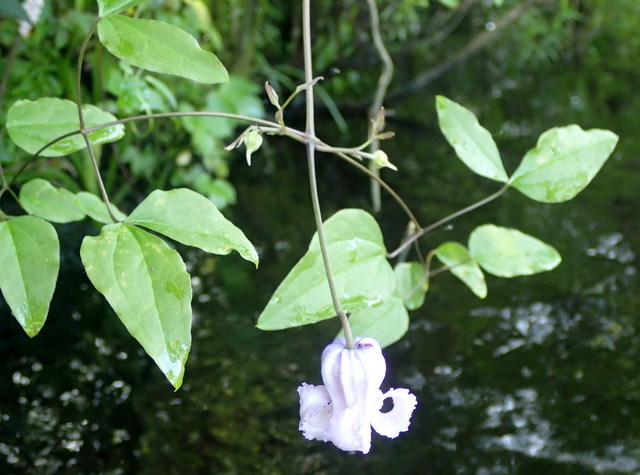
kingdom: Plantae
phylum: Tracheophyta
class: Magnoliopsida
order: Ranunculales
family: Ranunculaceae
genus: Clematis
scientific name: Clematis crispa
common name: Curly clematis
